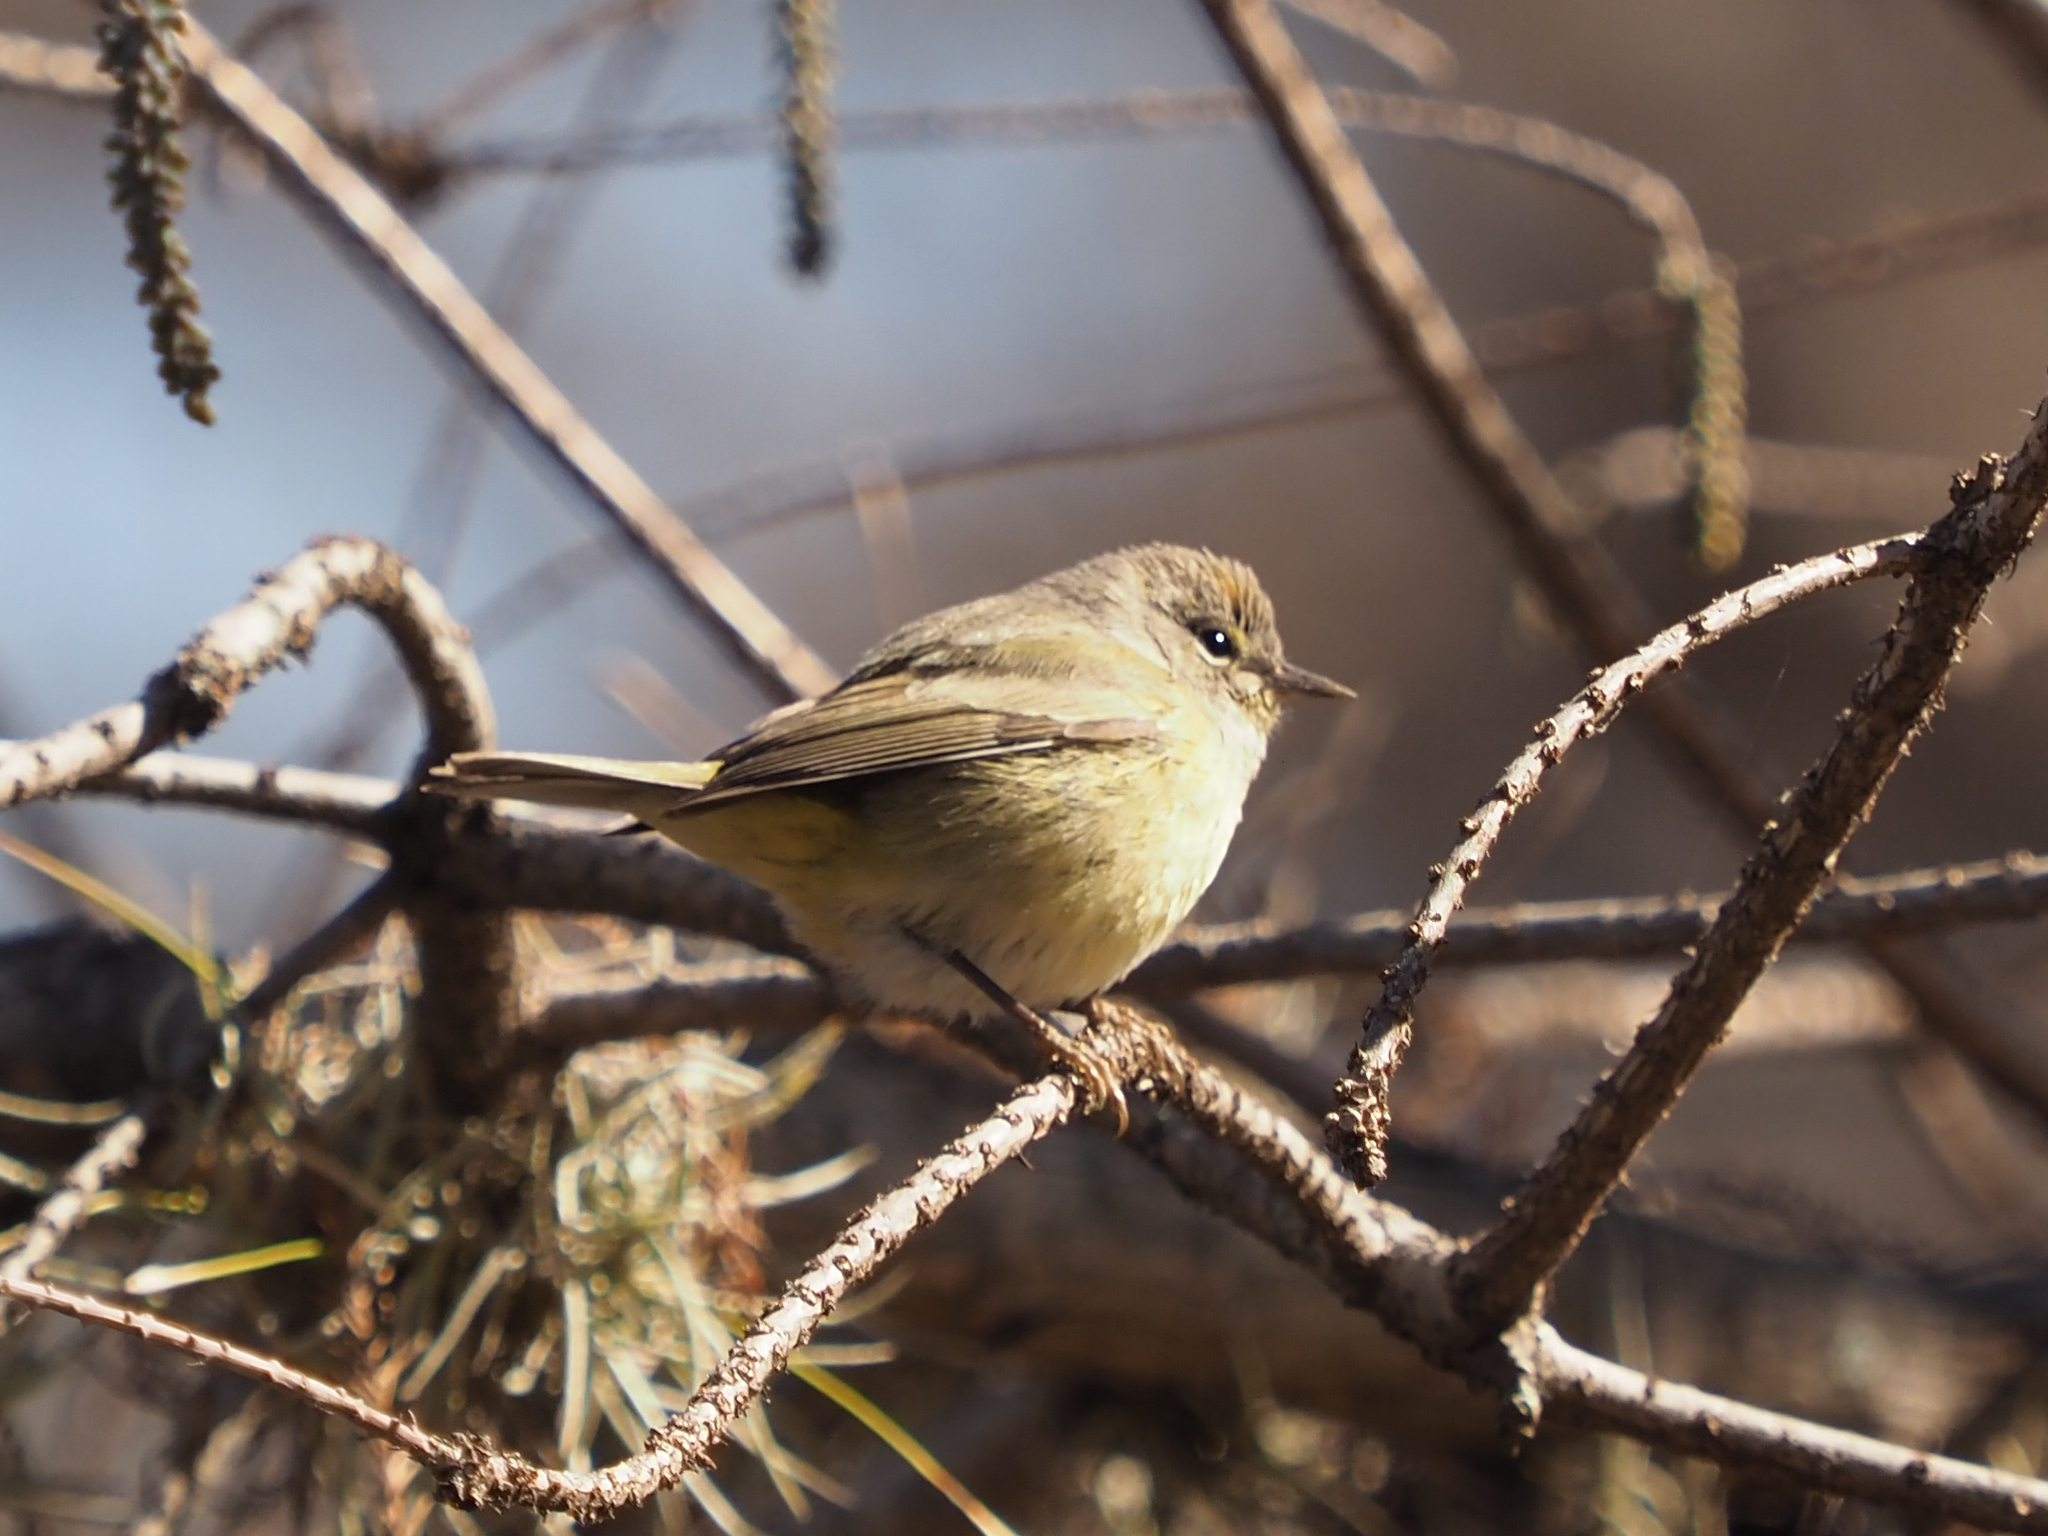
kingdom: Animalia
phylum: Chordata
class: Aves
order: Passeriformes
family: Parulidae
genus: Leiothlypis
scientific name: Leiothlypis celata
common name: Orange-crowned warbler
